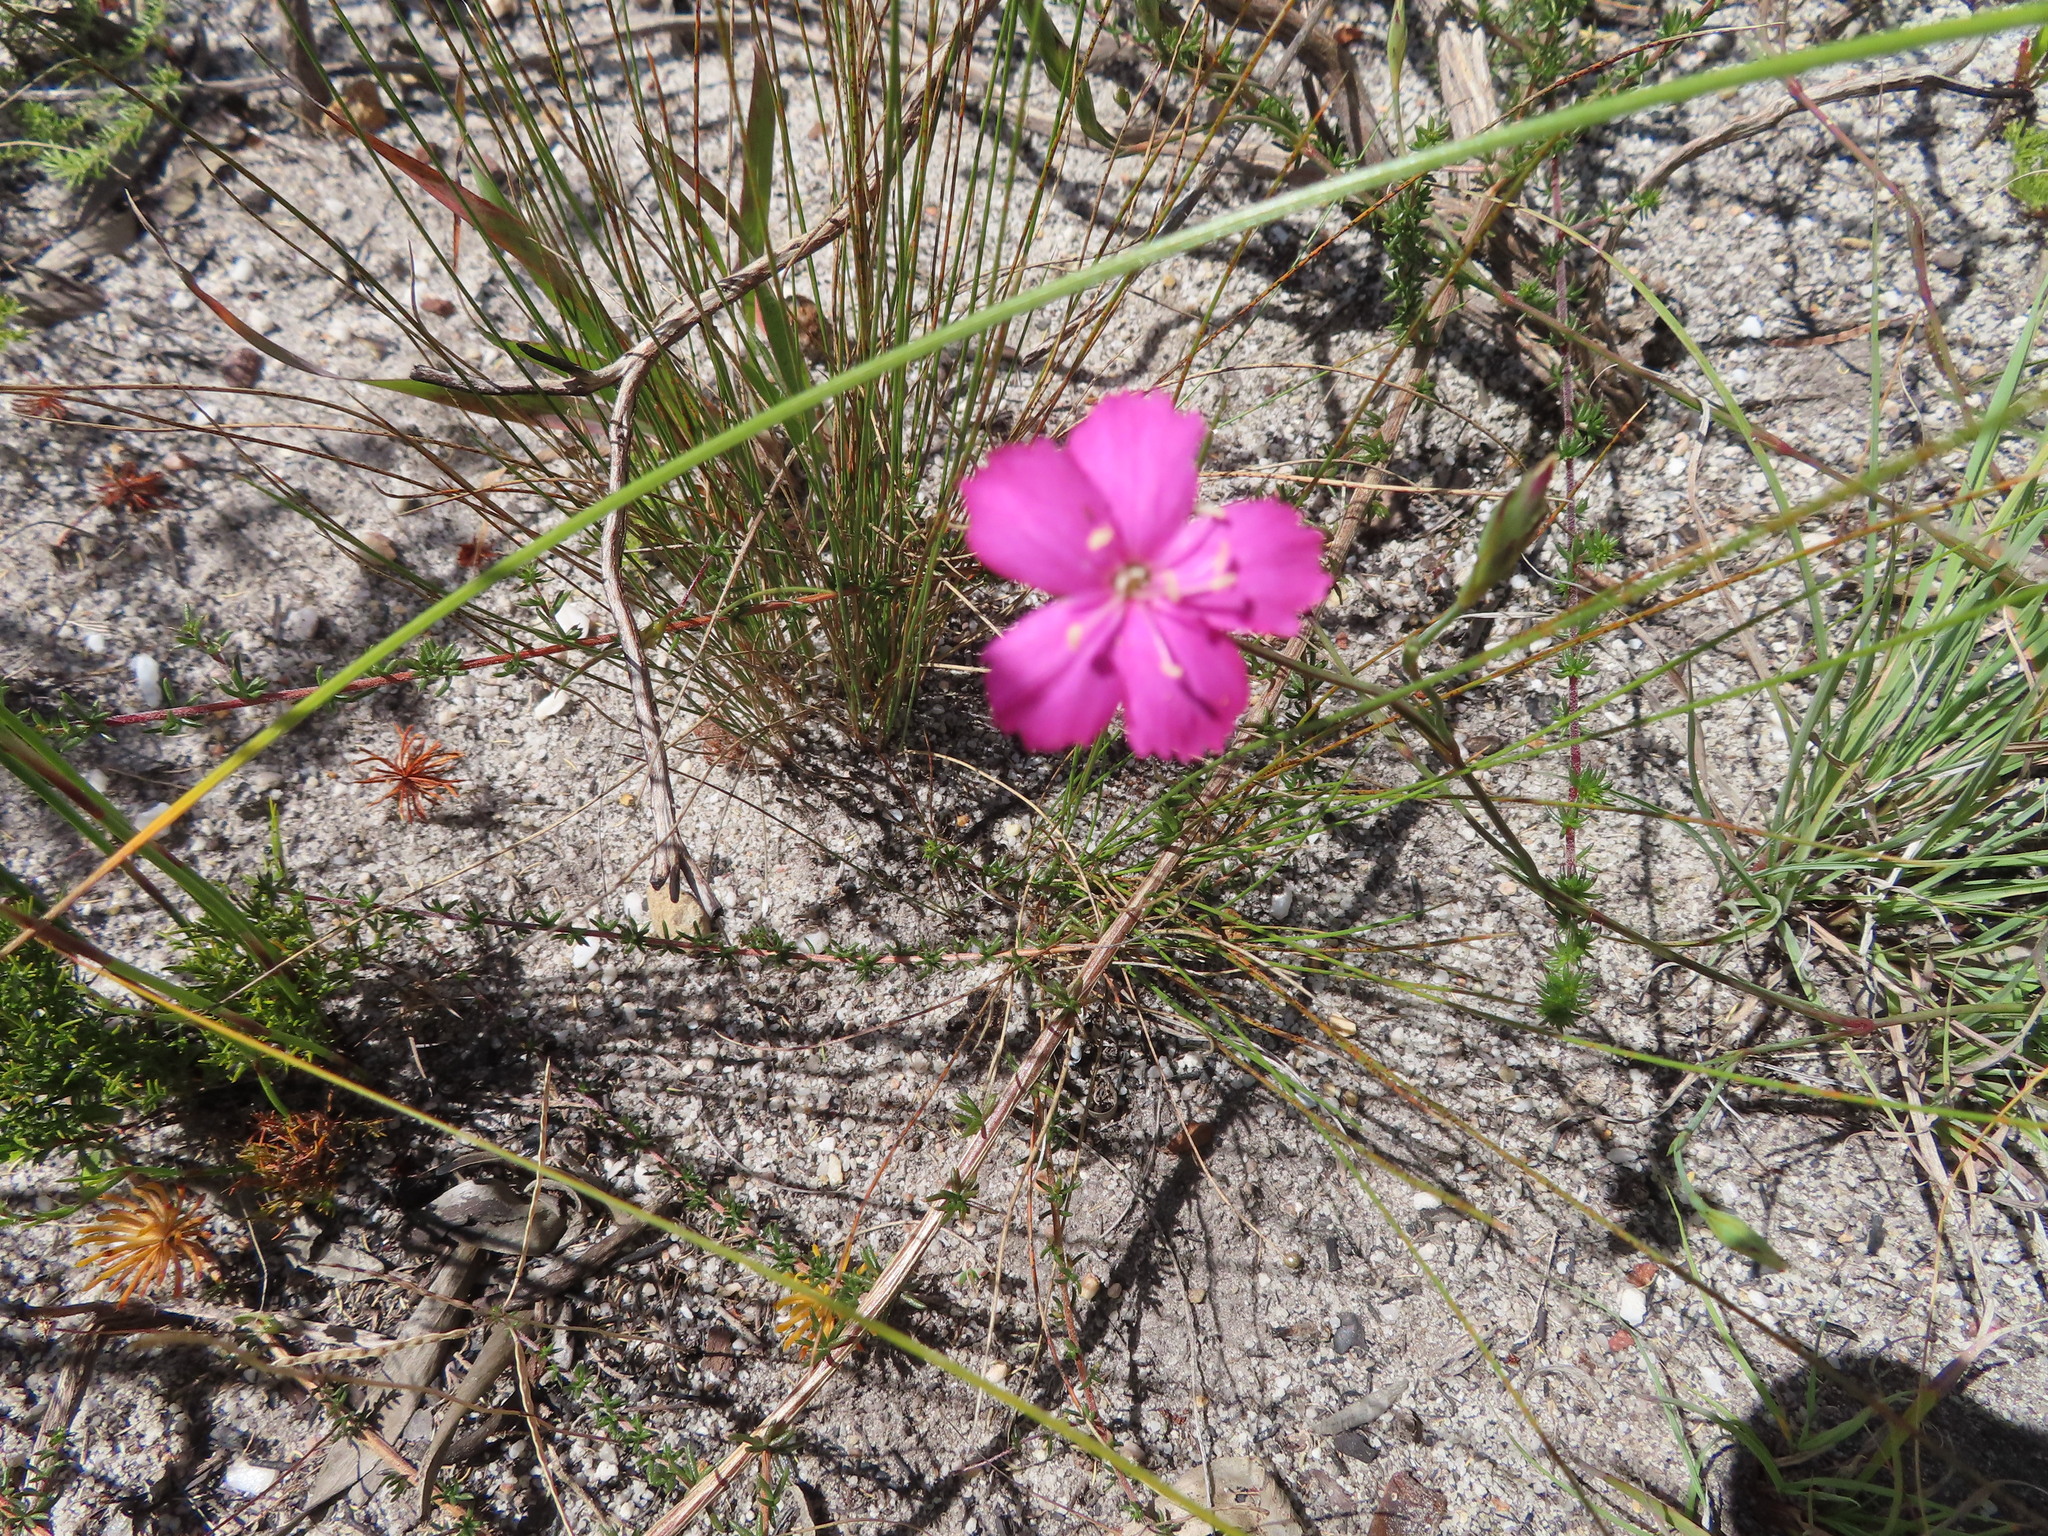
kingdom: Plantae
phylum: Tracheophyta
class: Magnoliopsida
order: Caryophyllales
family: Caryophyllaceae
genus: Dianthus
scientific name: Dianthus albens
